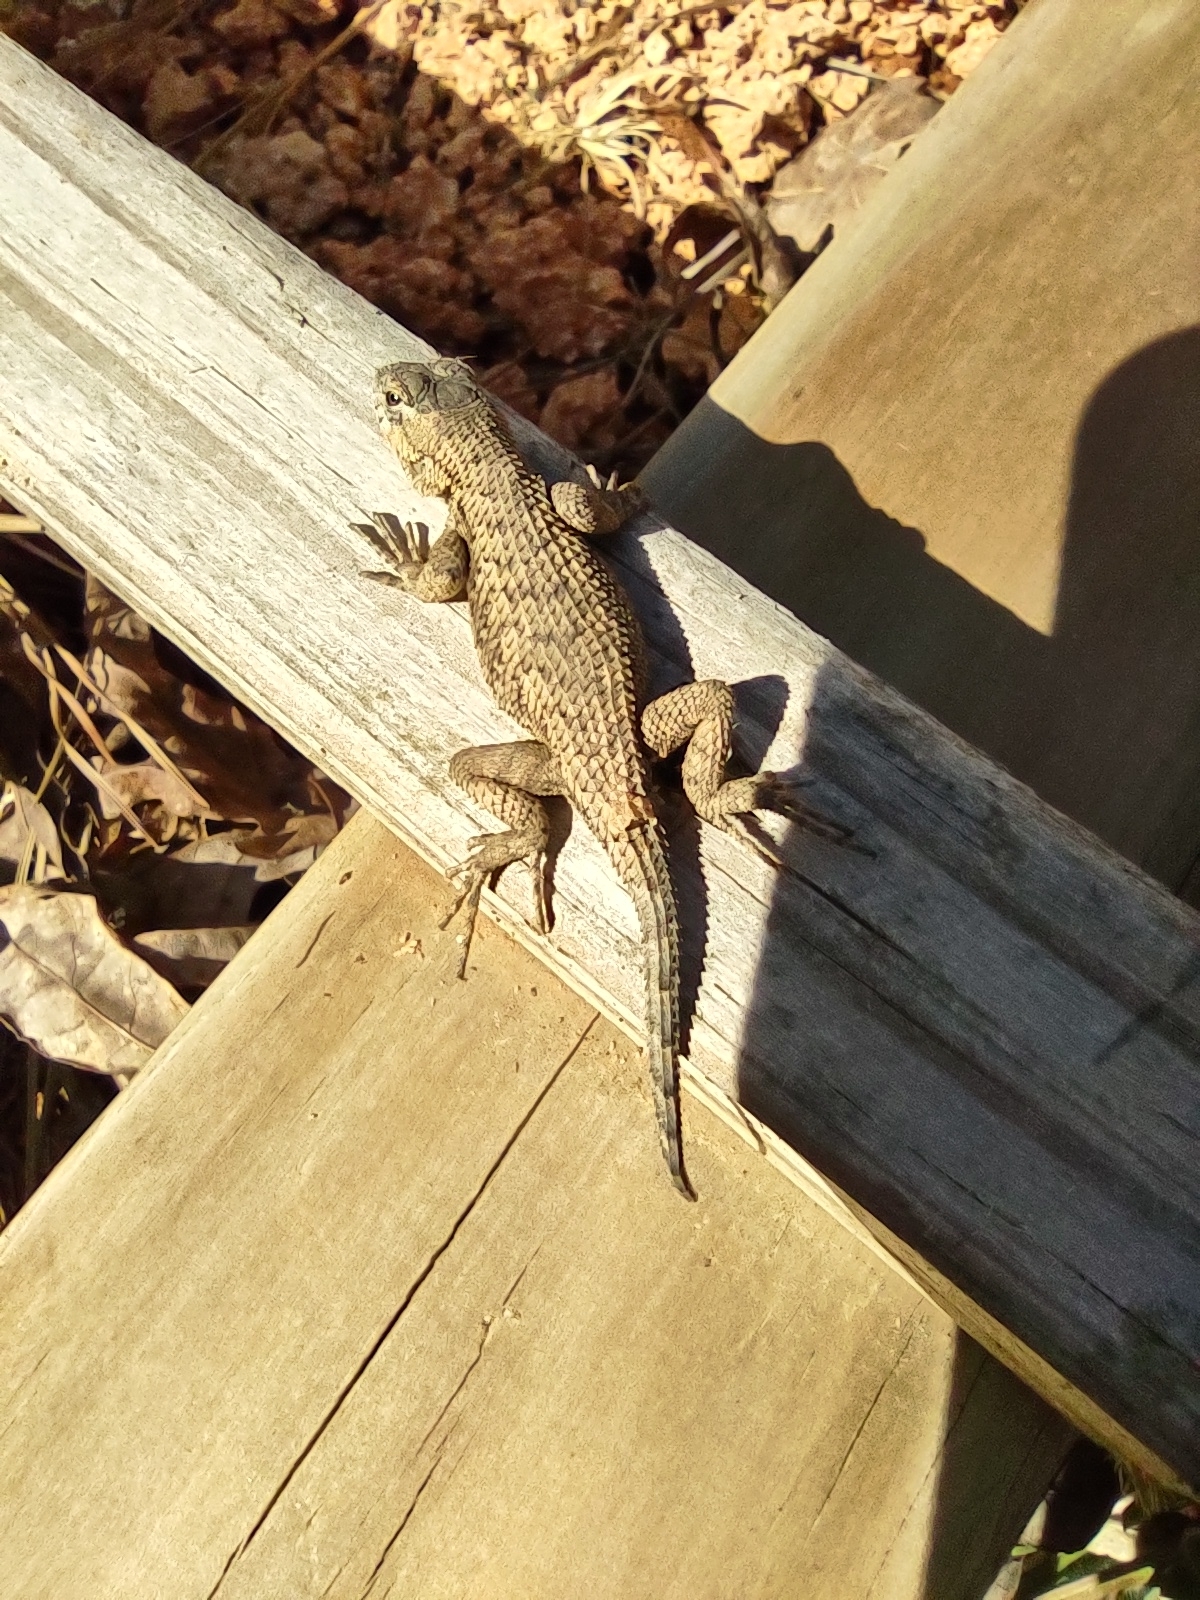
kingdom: Animalia
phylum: Chordata
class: Squamata
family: Phrynosomatidae
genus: Sceloporus
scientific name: Sceloporus undulatus
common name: Eastern fence lizard
